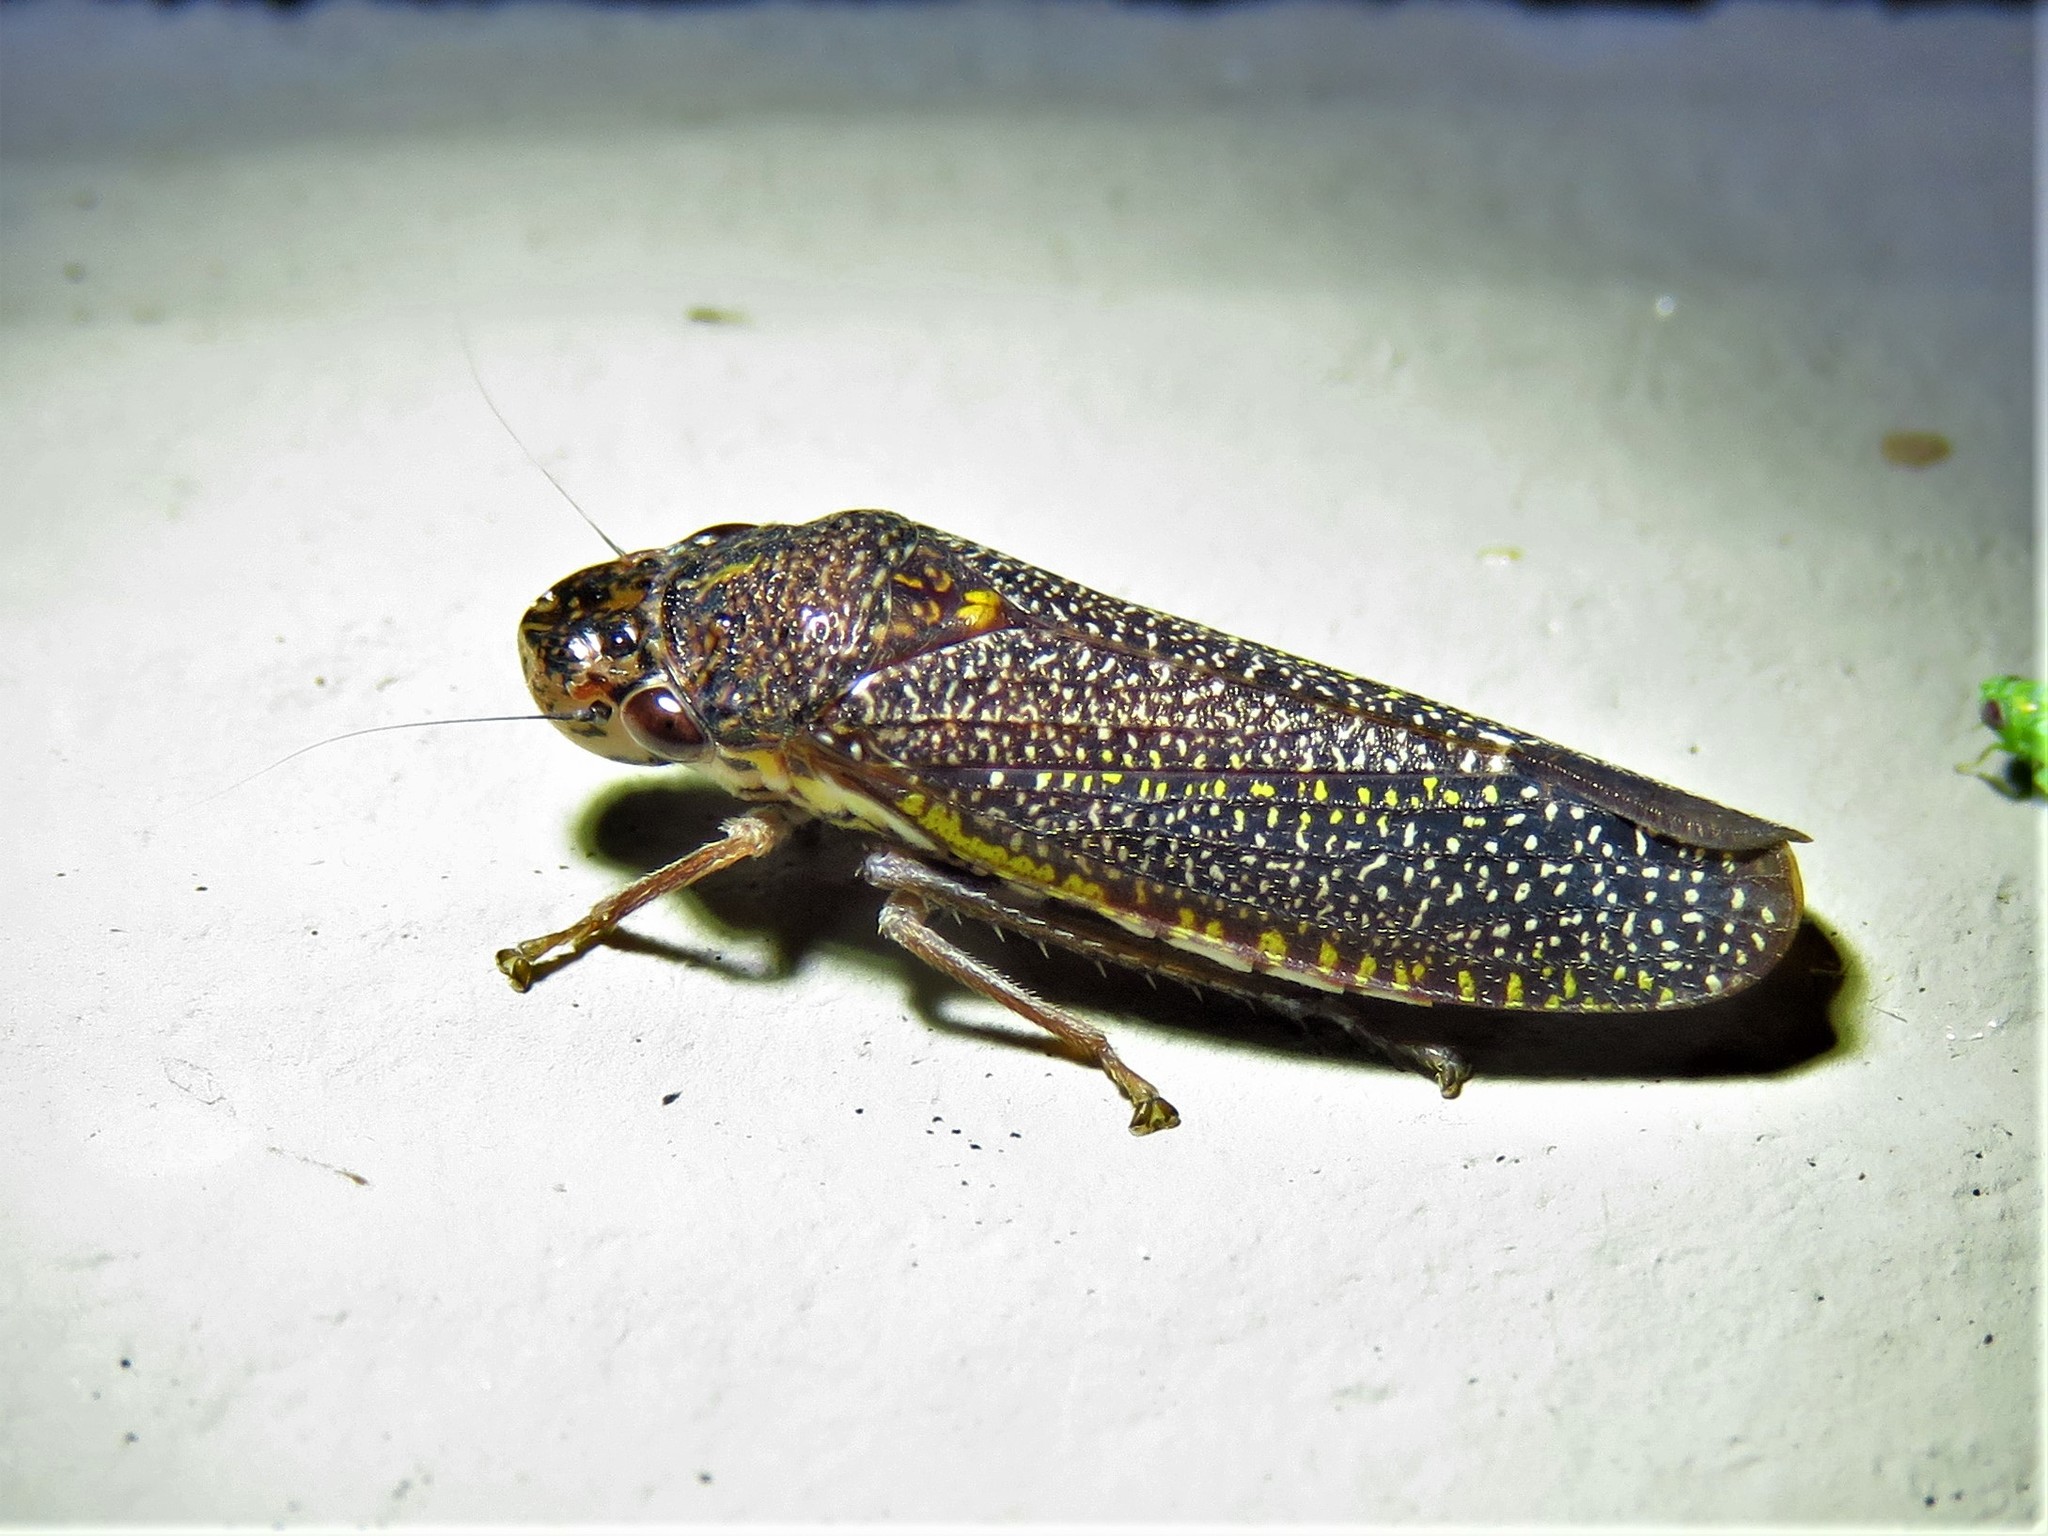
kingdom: Animalia
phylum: Arthropoda
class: Insecta
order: Hemiptera
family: Cicadellidae
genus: Paraulacizes
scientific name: Paraulacizes irrorata
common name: Speckled sharpshooter
